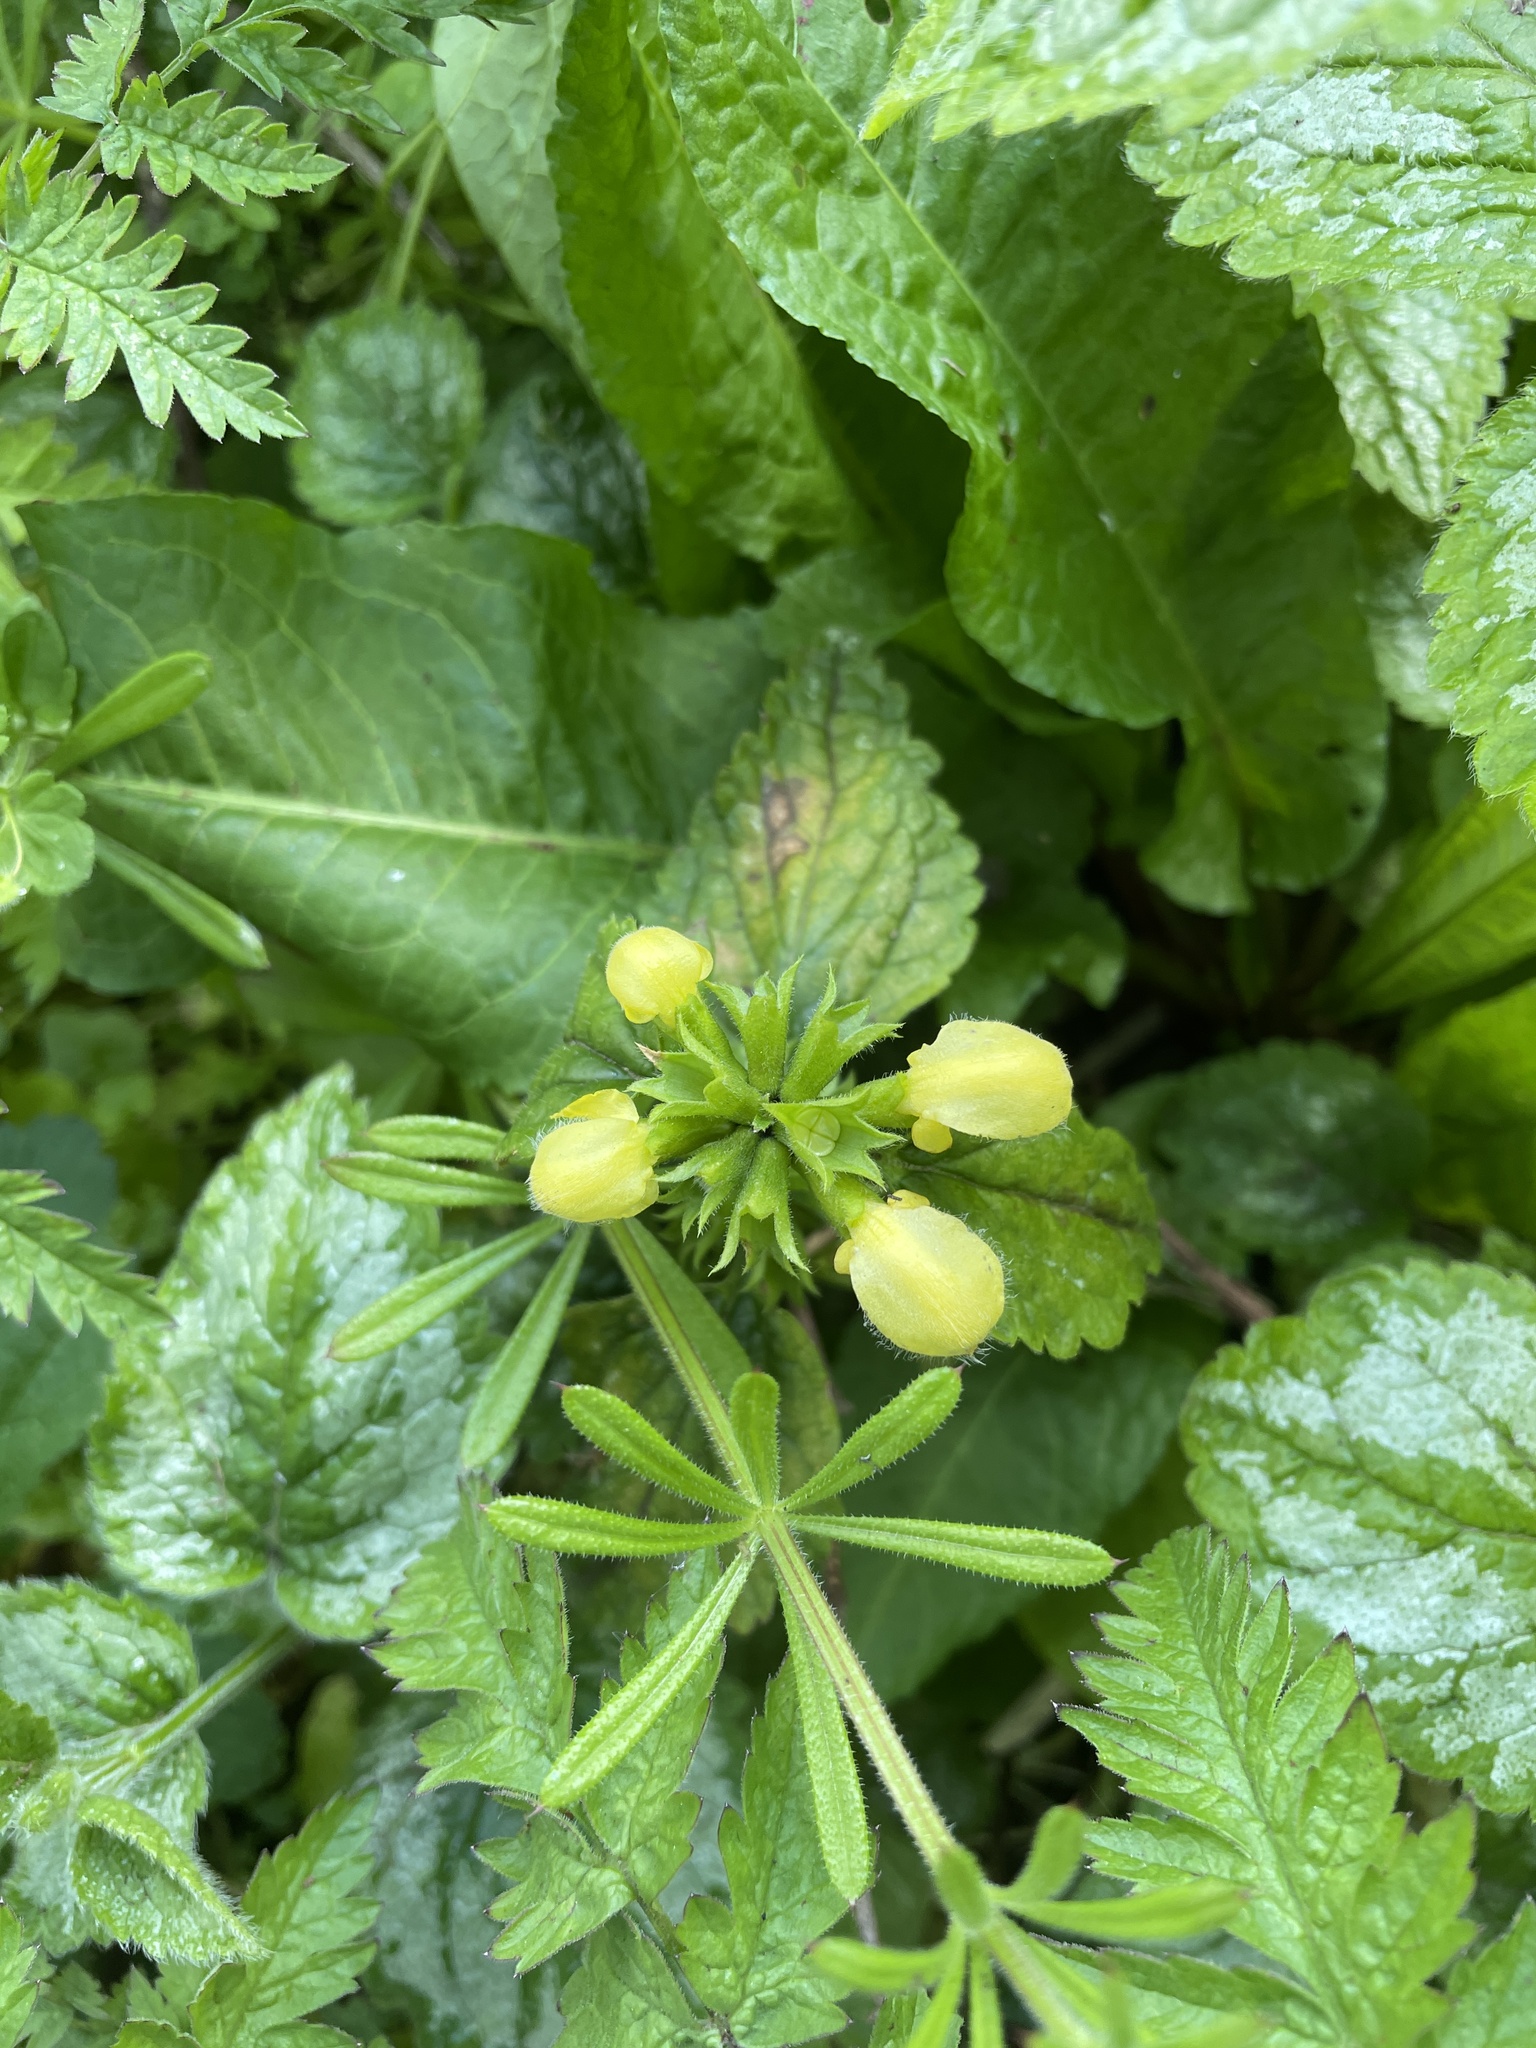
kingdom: Plantae
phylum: Tracheophyta
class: Magnoliopsida
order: Lamiales
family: Lamiaceae
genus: Lamium
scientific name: Lamium galeobdolon
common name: Yellow archangel
